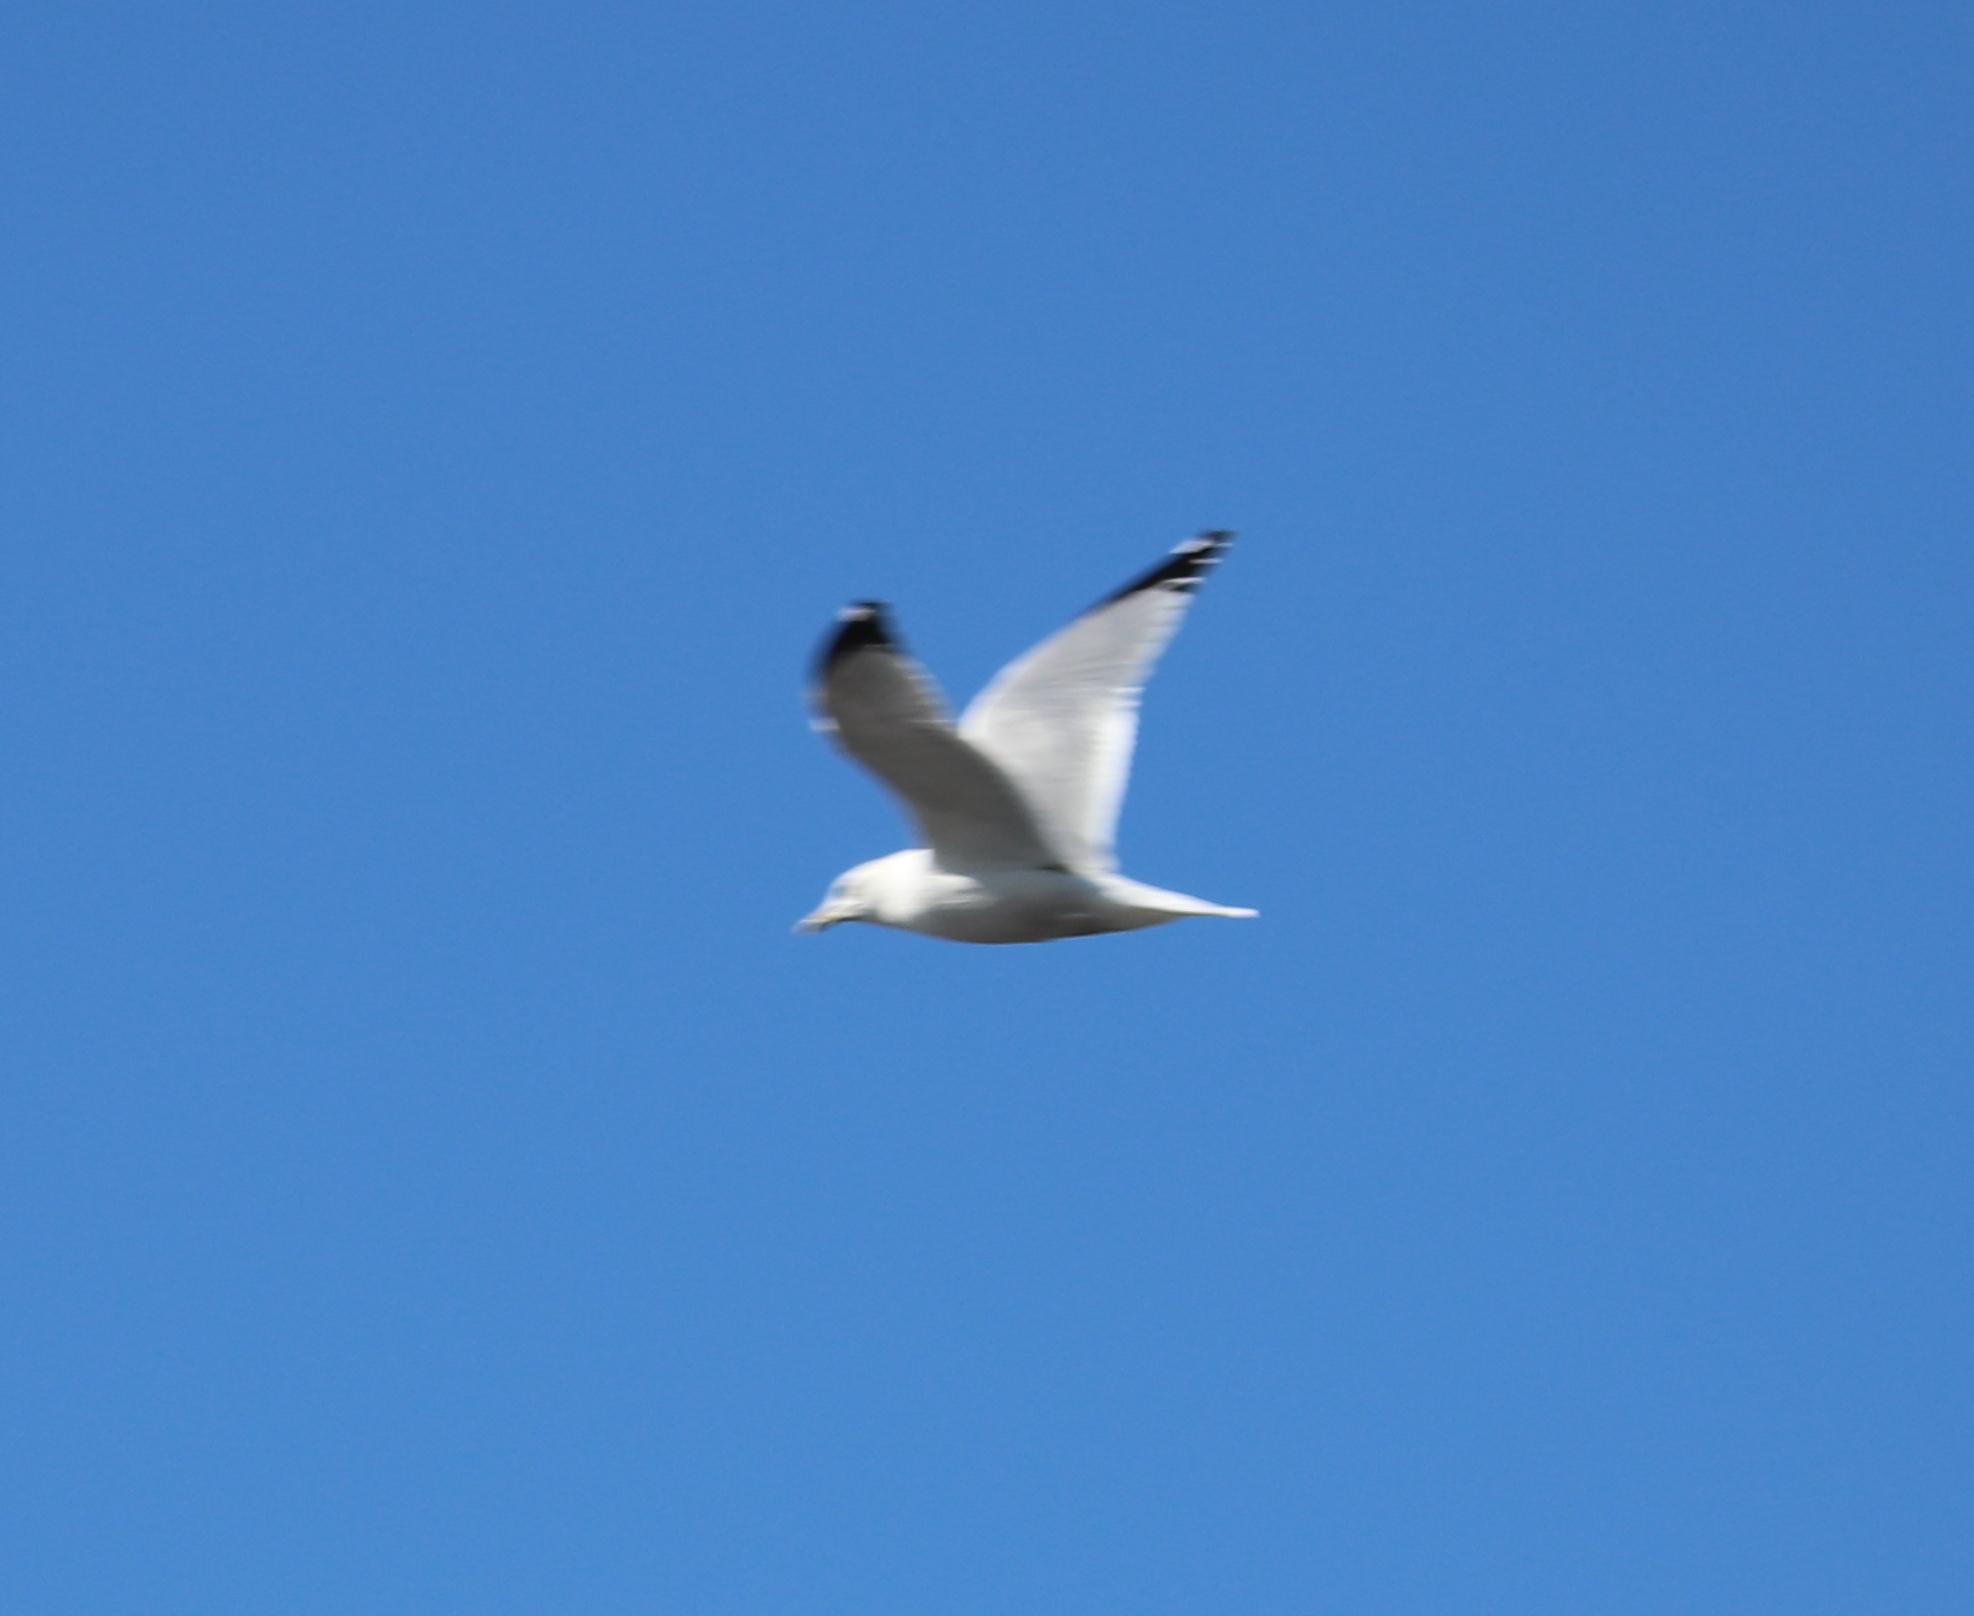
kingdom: Animalia
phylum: Chordata
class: Aves
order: Charadriiformes
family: Laridae
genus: Larus
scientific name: Larus delawarensis
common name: Ring-billed gull
